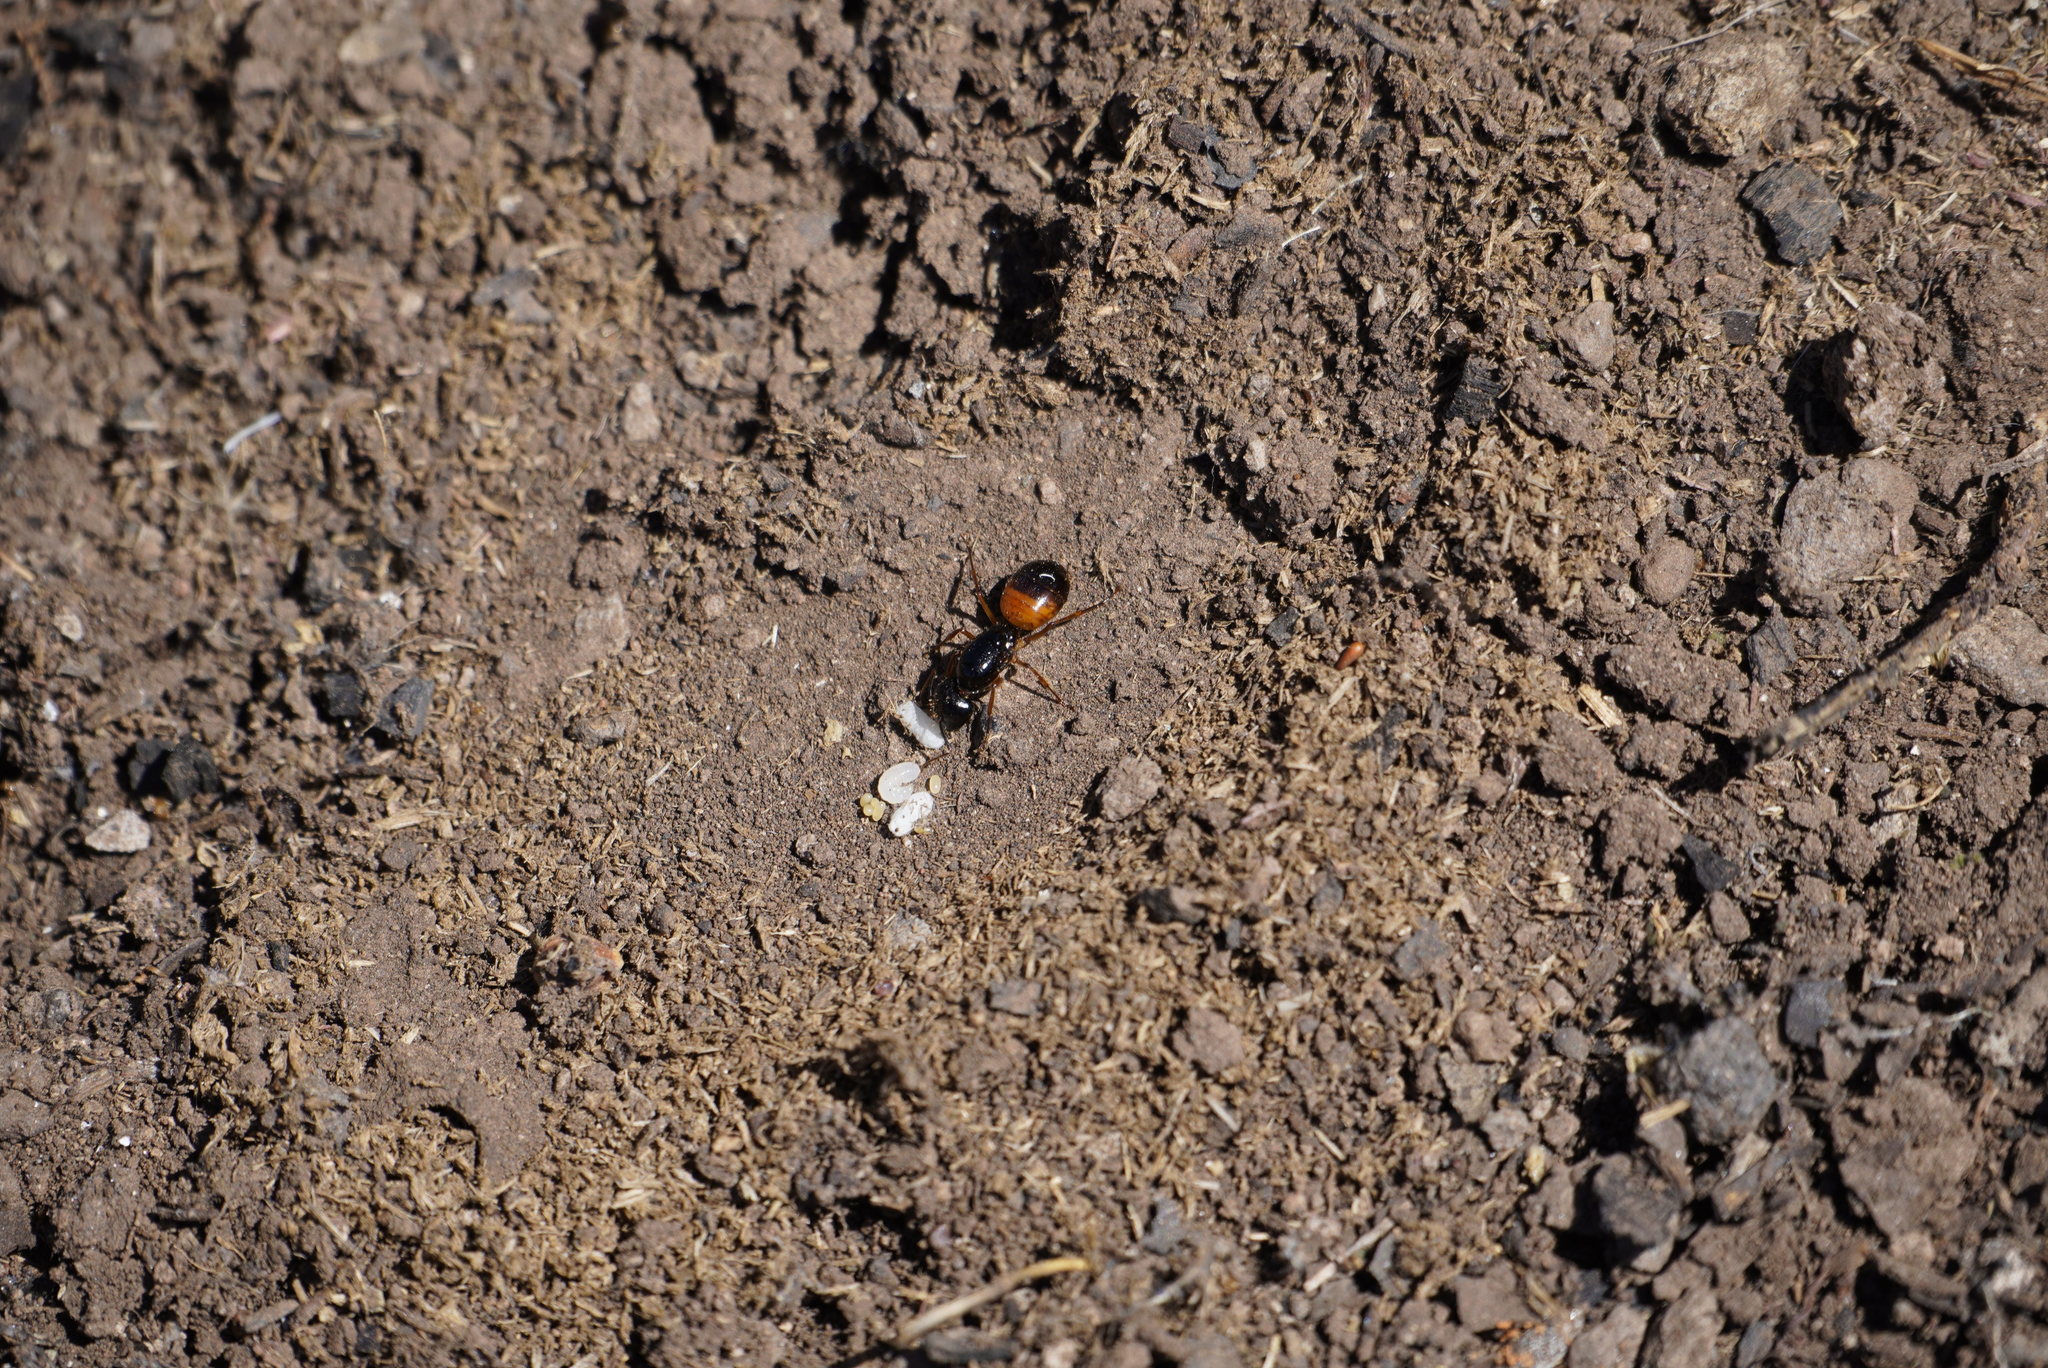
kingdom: Animalia
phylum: Arthropoda
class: Insecta
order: Hymenoptera
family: Formicidae
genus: Camponotus
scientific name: Camponotus sansabeanus
